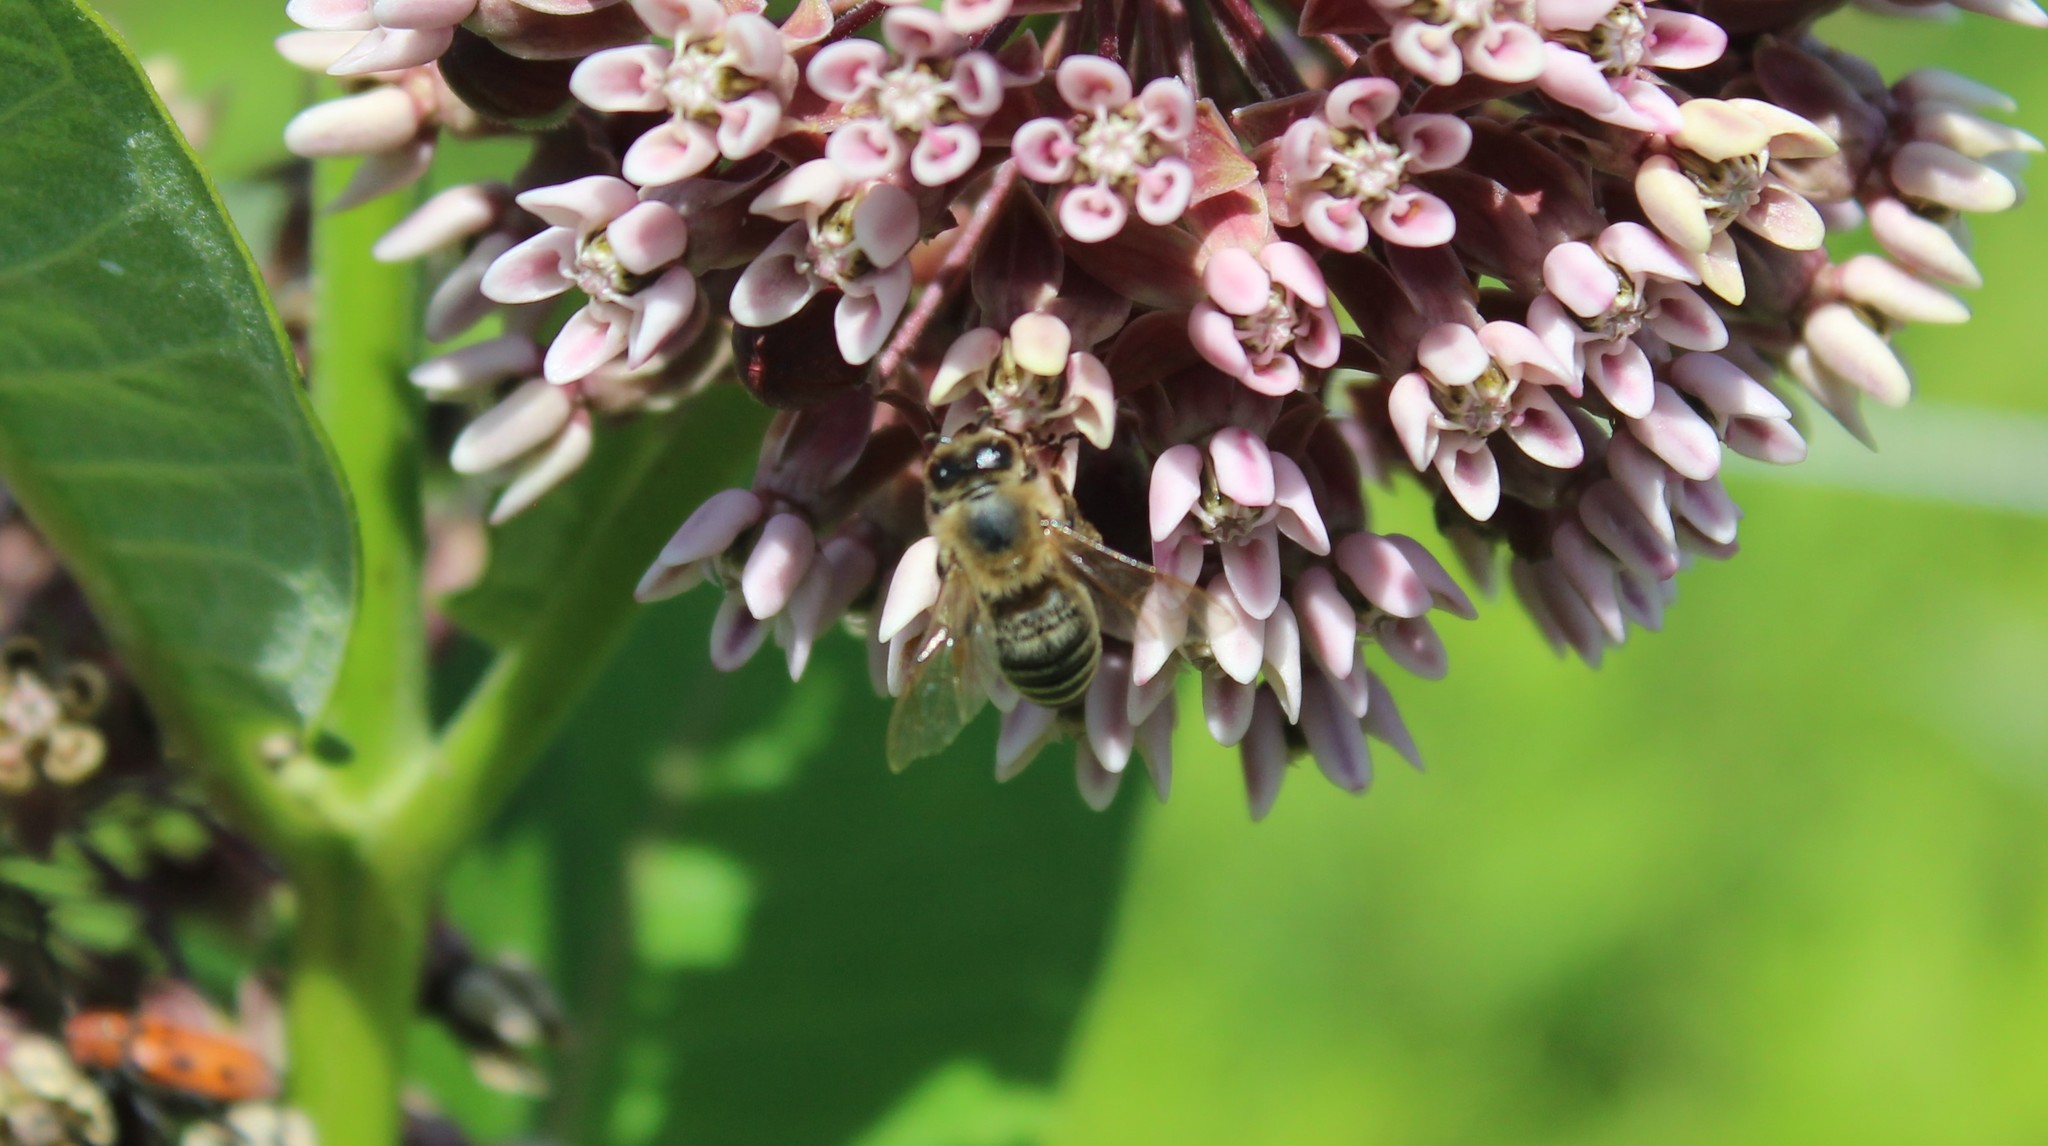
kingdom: Animalia
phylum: Arthropoda
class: Insecta
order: Hymenoptera
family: Apidae
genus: Apis
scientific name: Apis mellifera
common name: Honey bee
